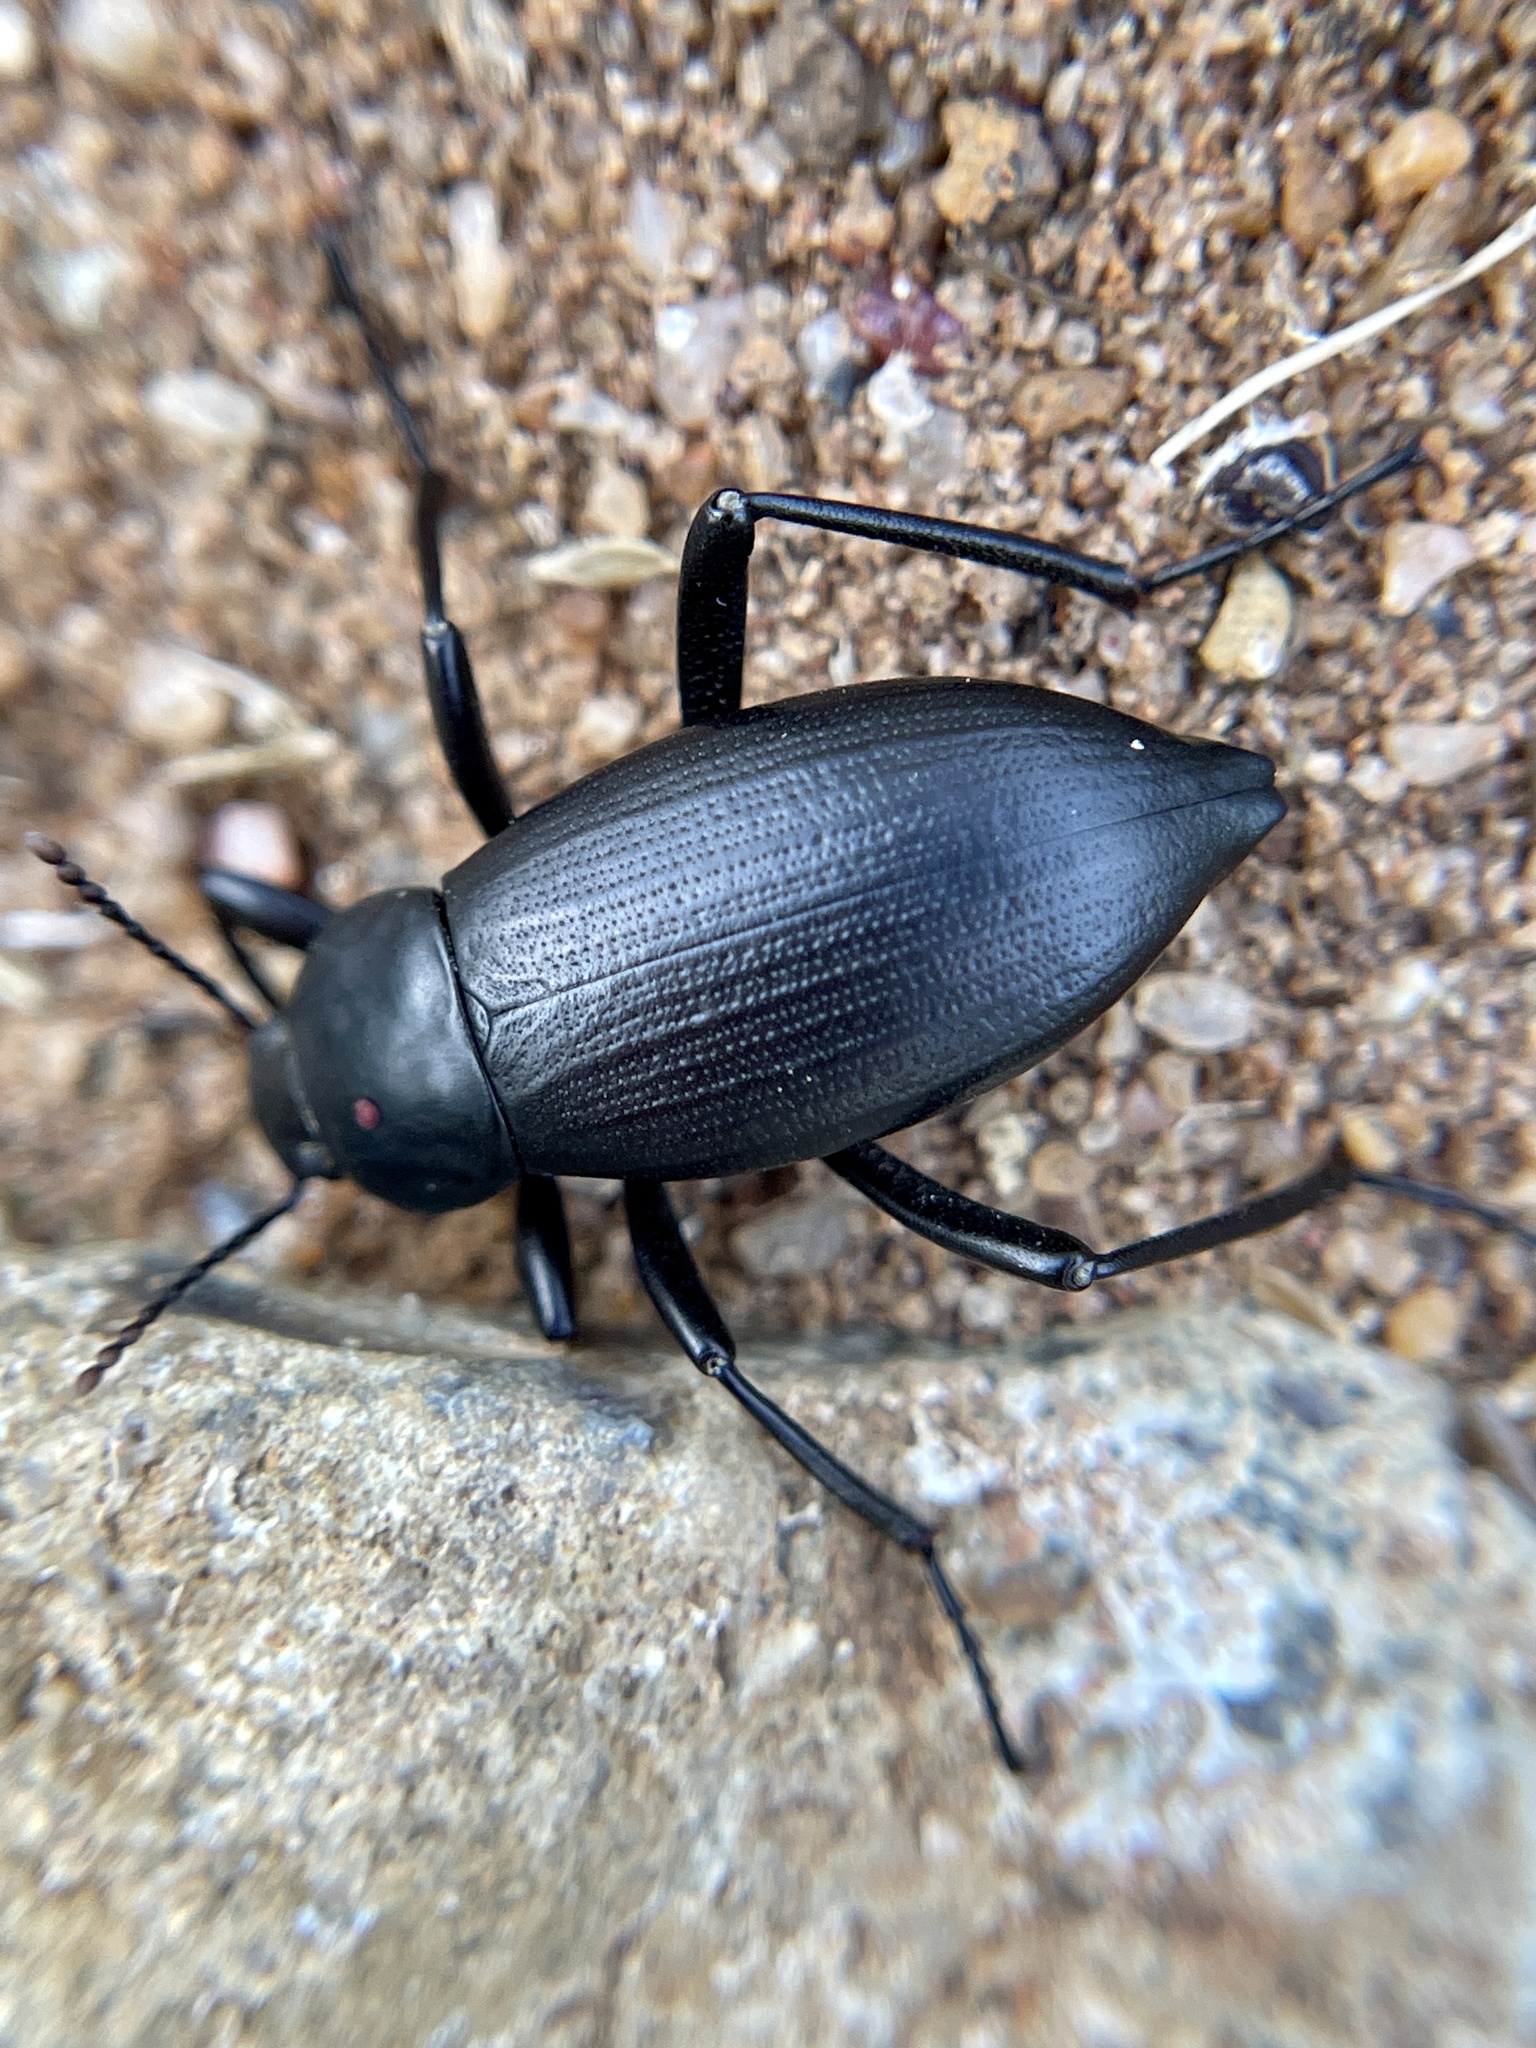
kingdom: Animalia
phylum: Arthropoda
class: Insecta
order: Coleoptera
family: Tenebrionidae
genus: Eleodes
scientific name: Eleodes striolata
